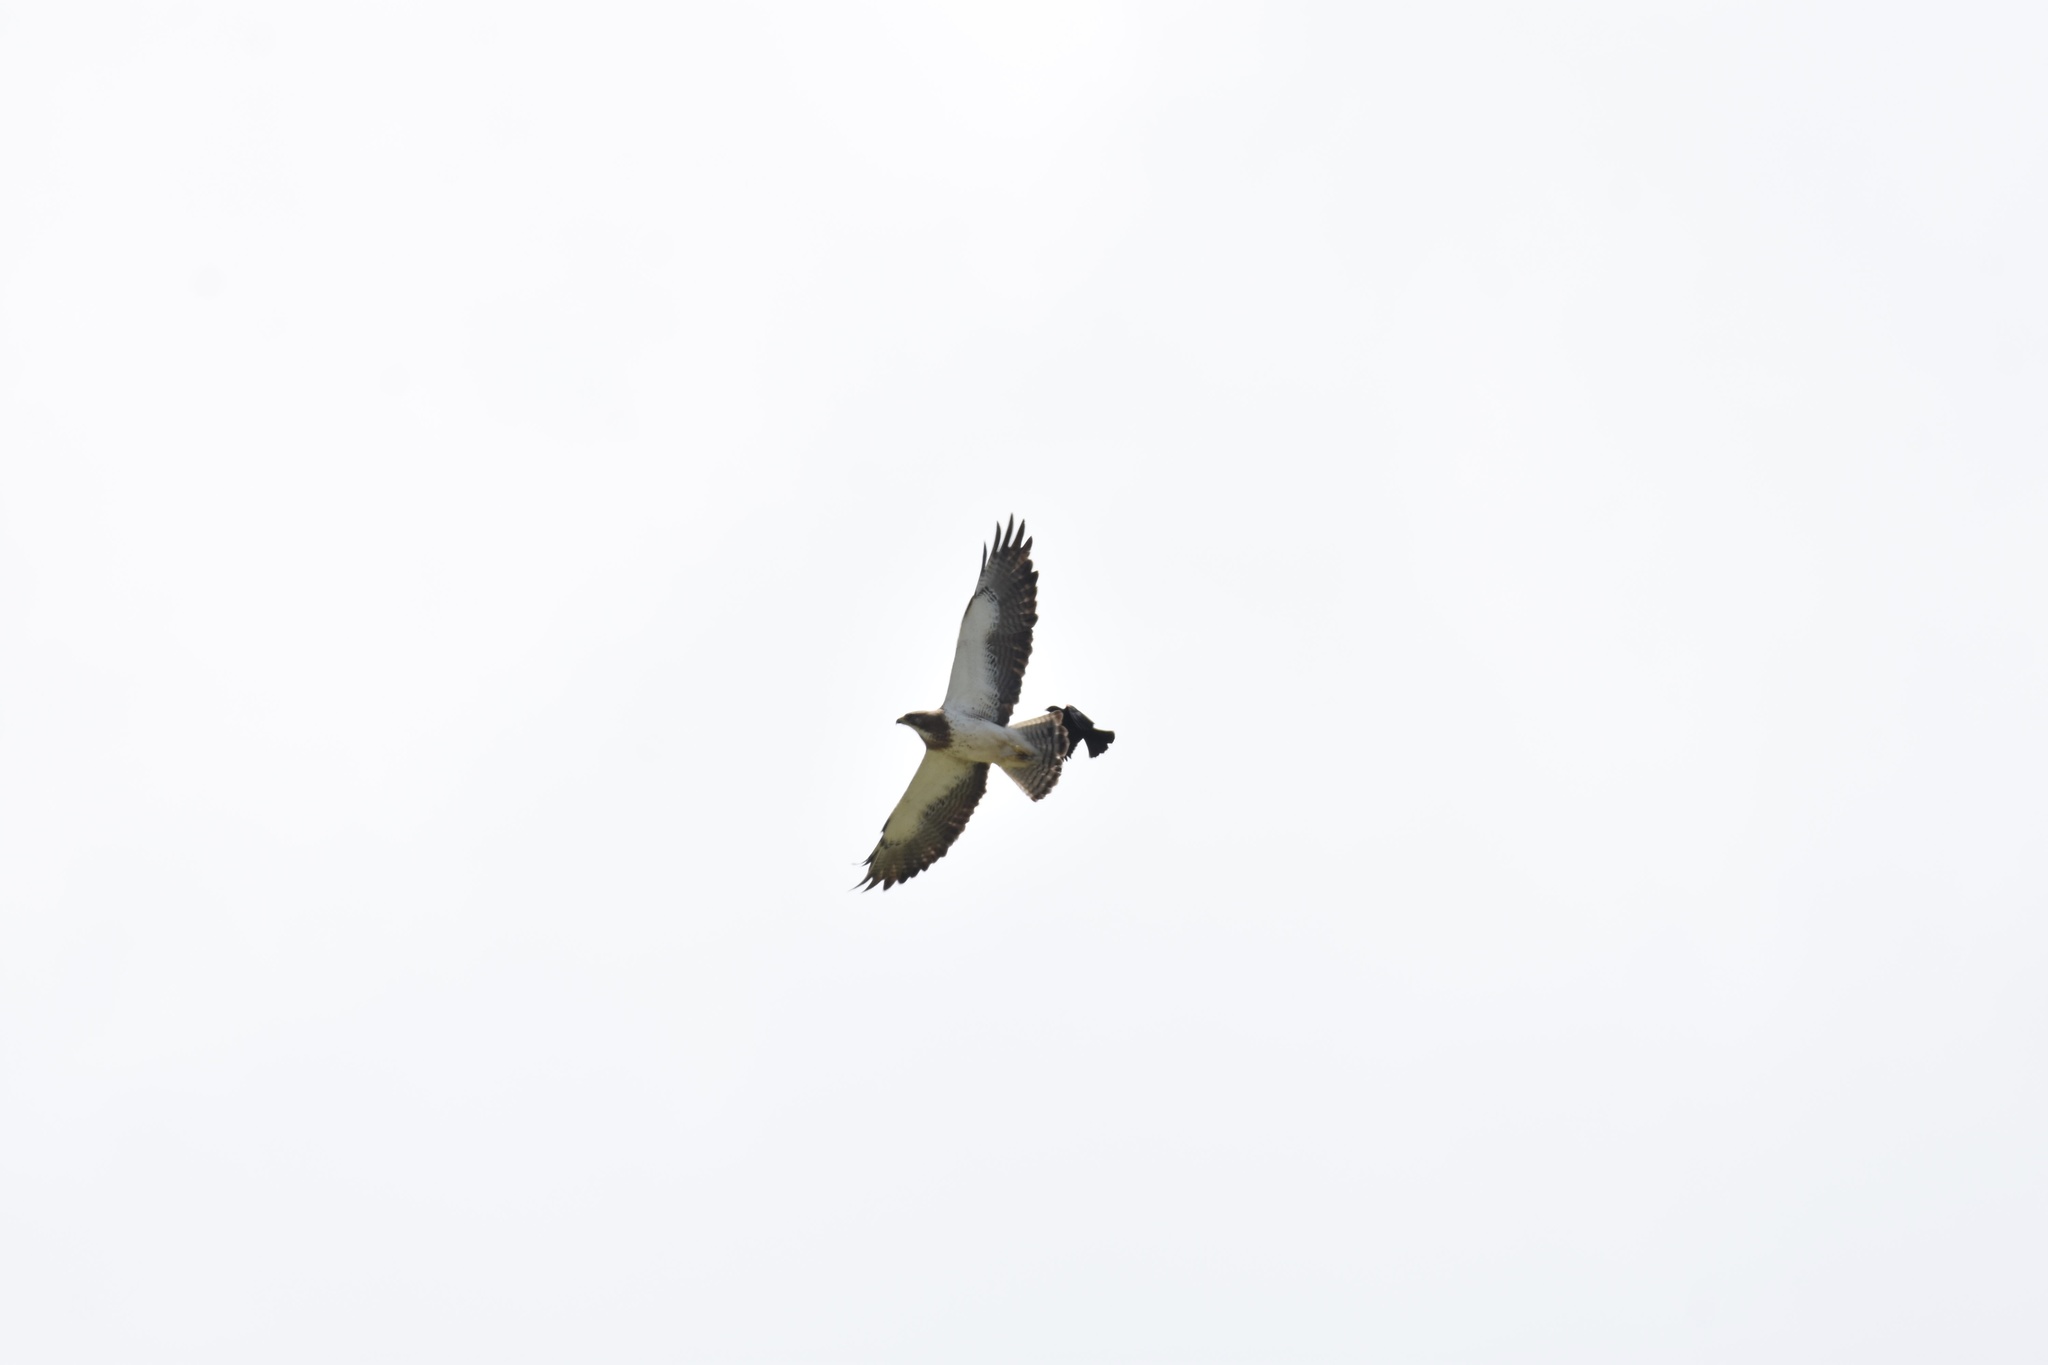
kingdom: Animalia
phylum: Chordata
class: Aves
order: Accipitriformes
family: Accipitridae
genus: Buteo
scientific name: Buteo swainsoni
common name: Swainson's hawk
